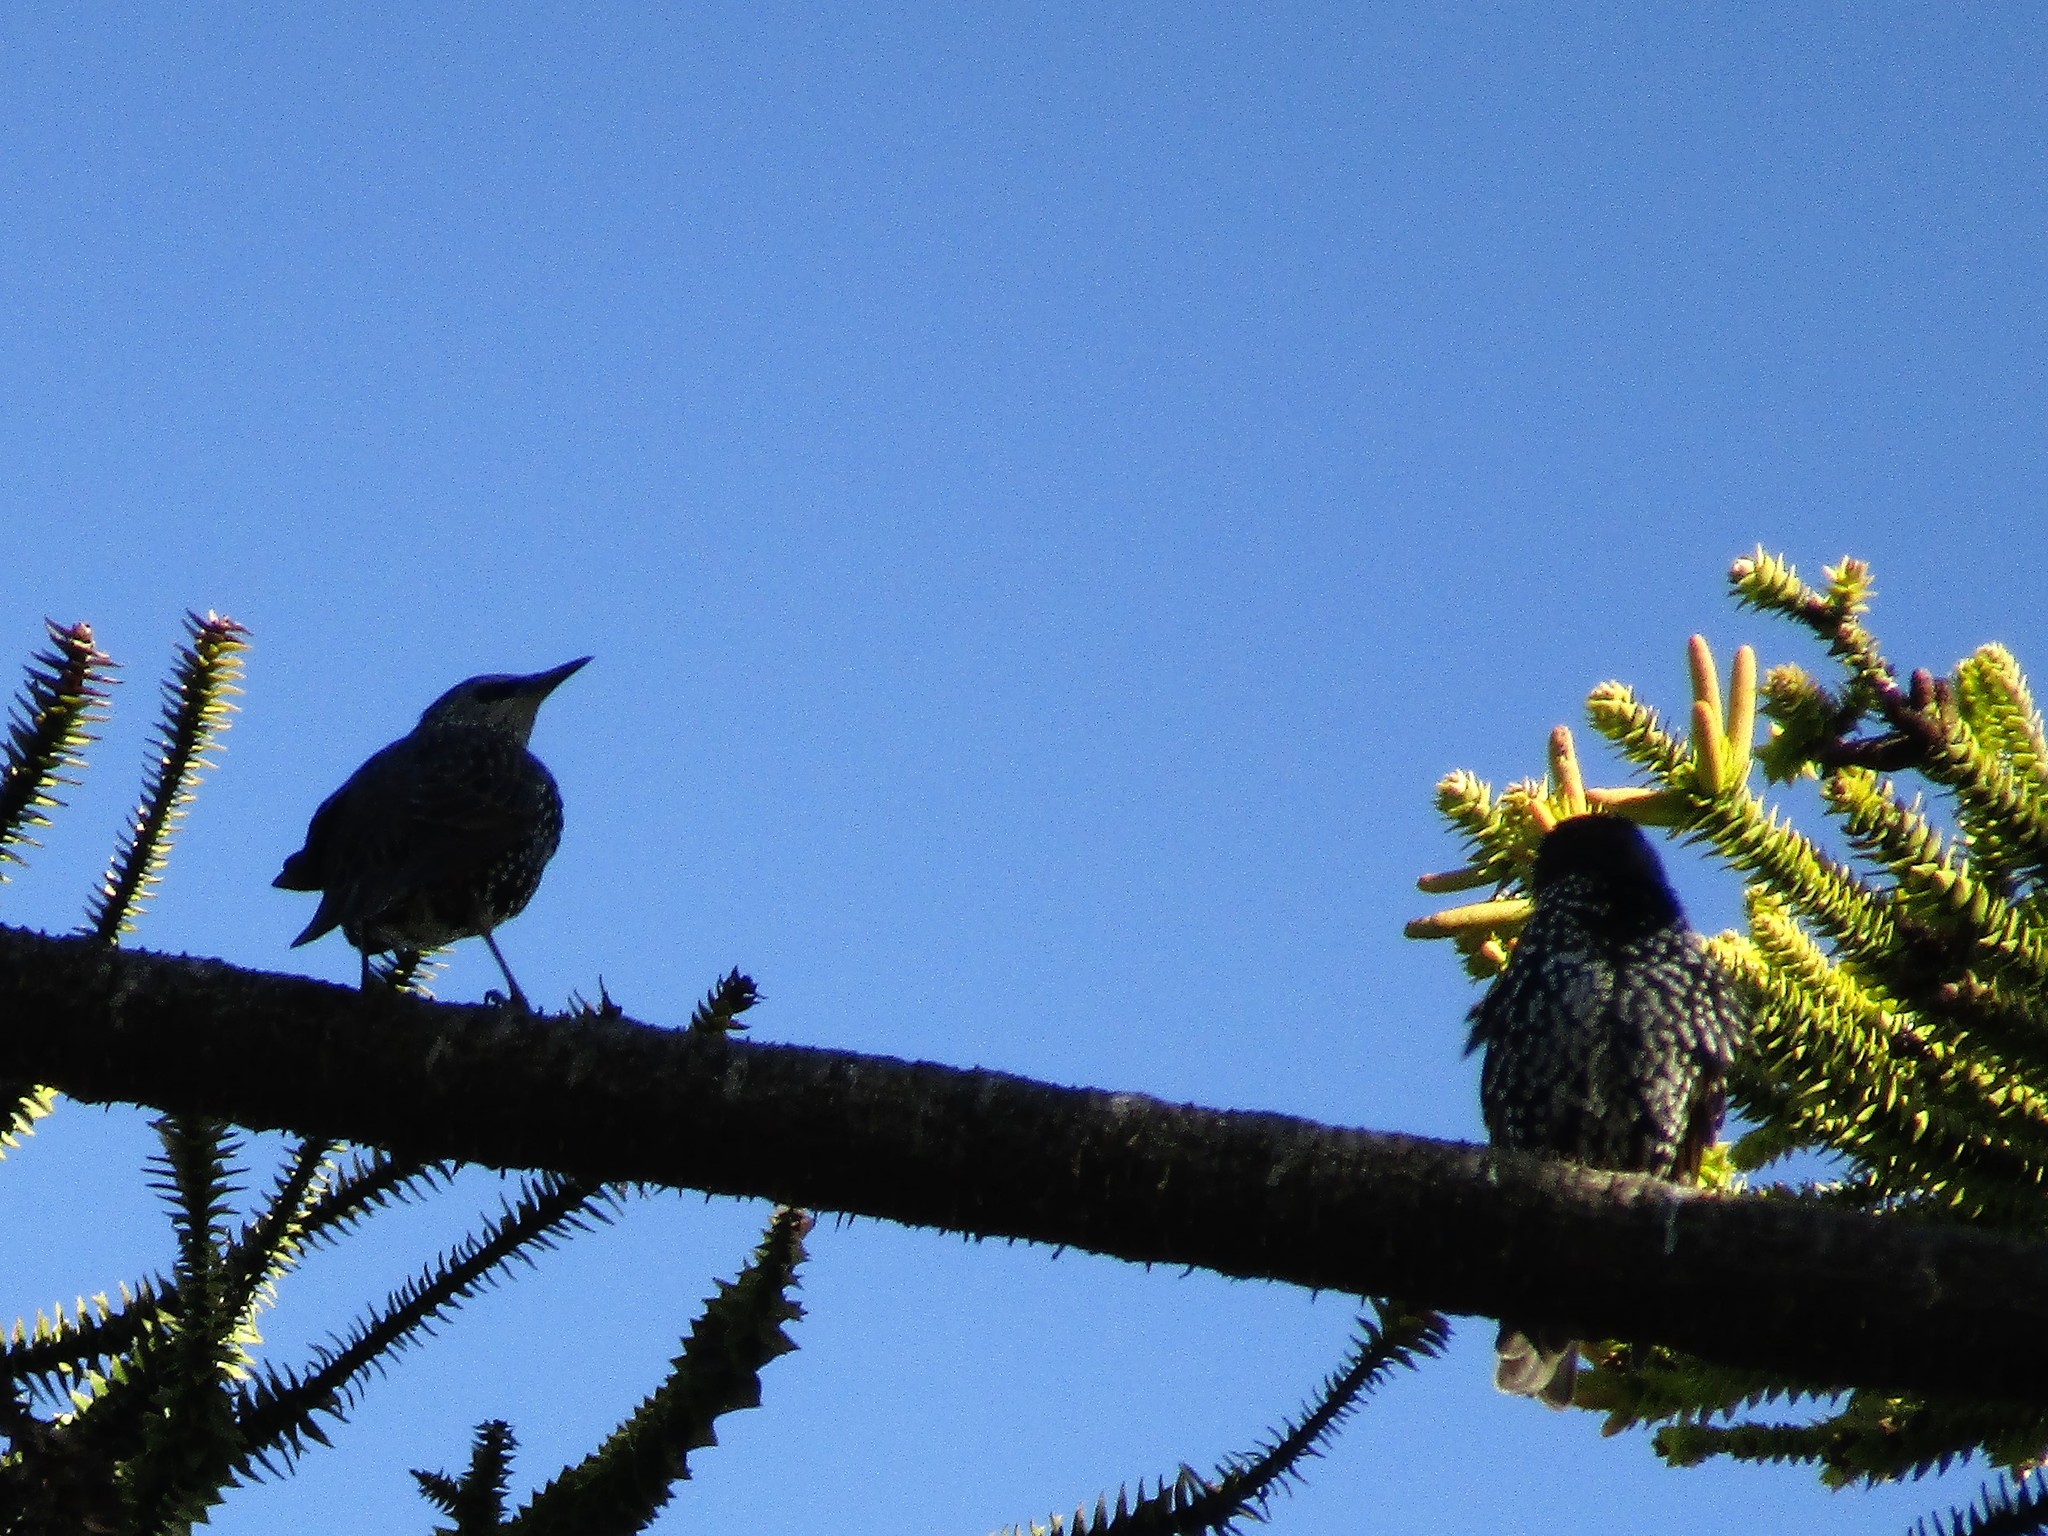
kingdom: Animalia
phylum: Chordata
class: Aves
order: Passeriformes
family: Sturnidae
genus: Sturnus
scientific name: Sturnus vulgaris
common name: Common starling
